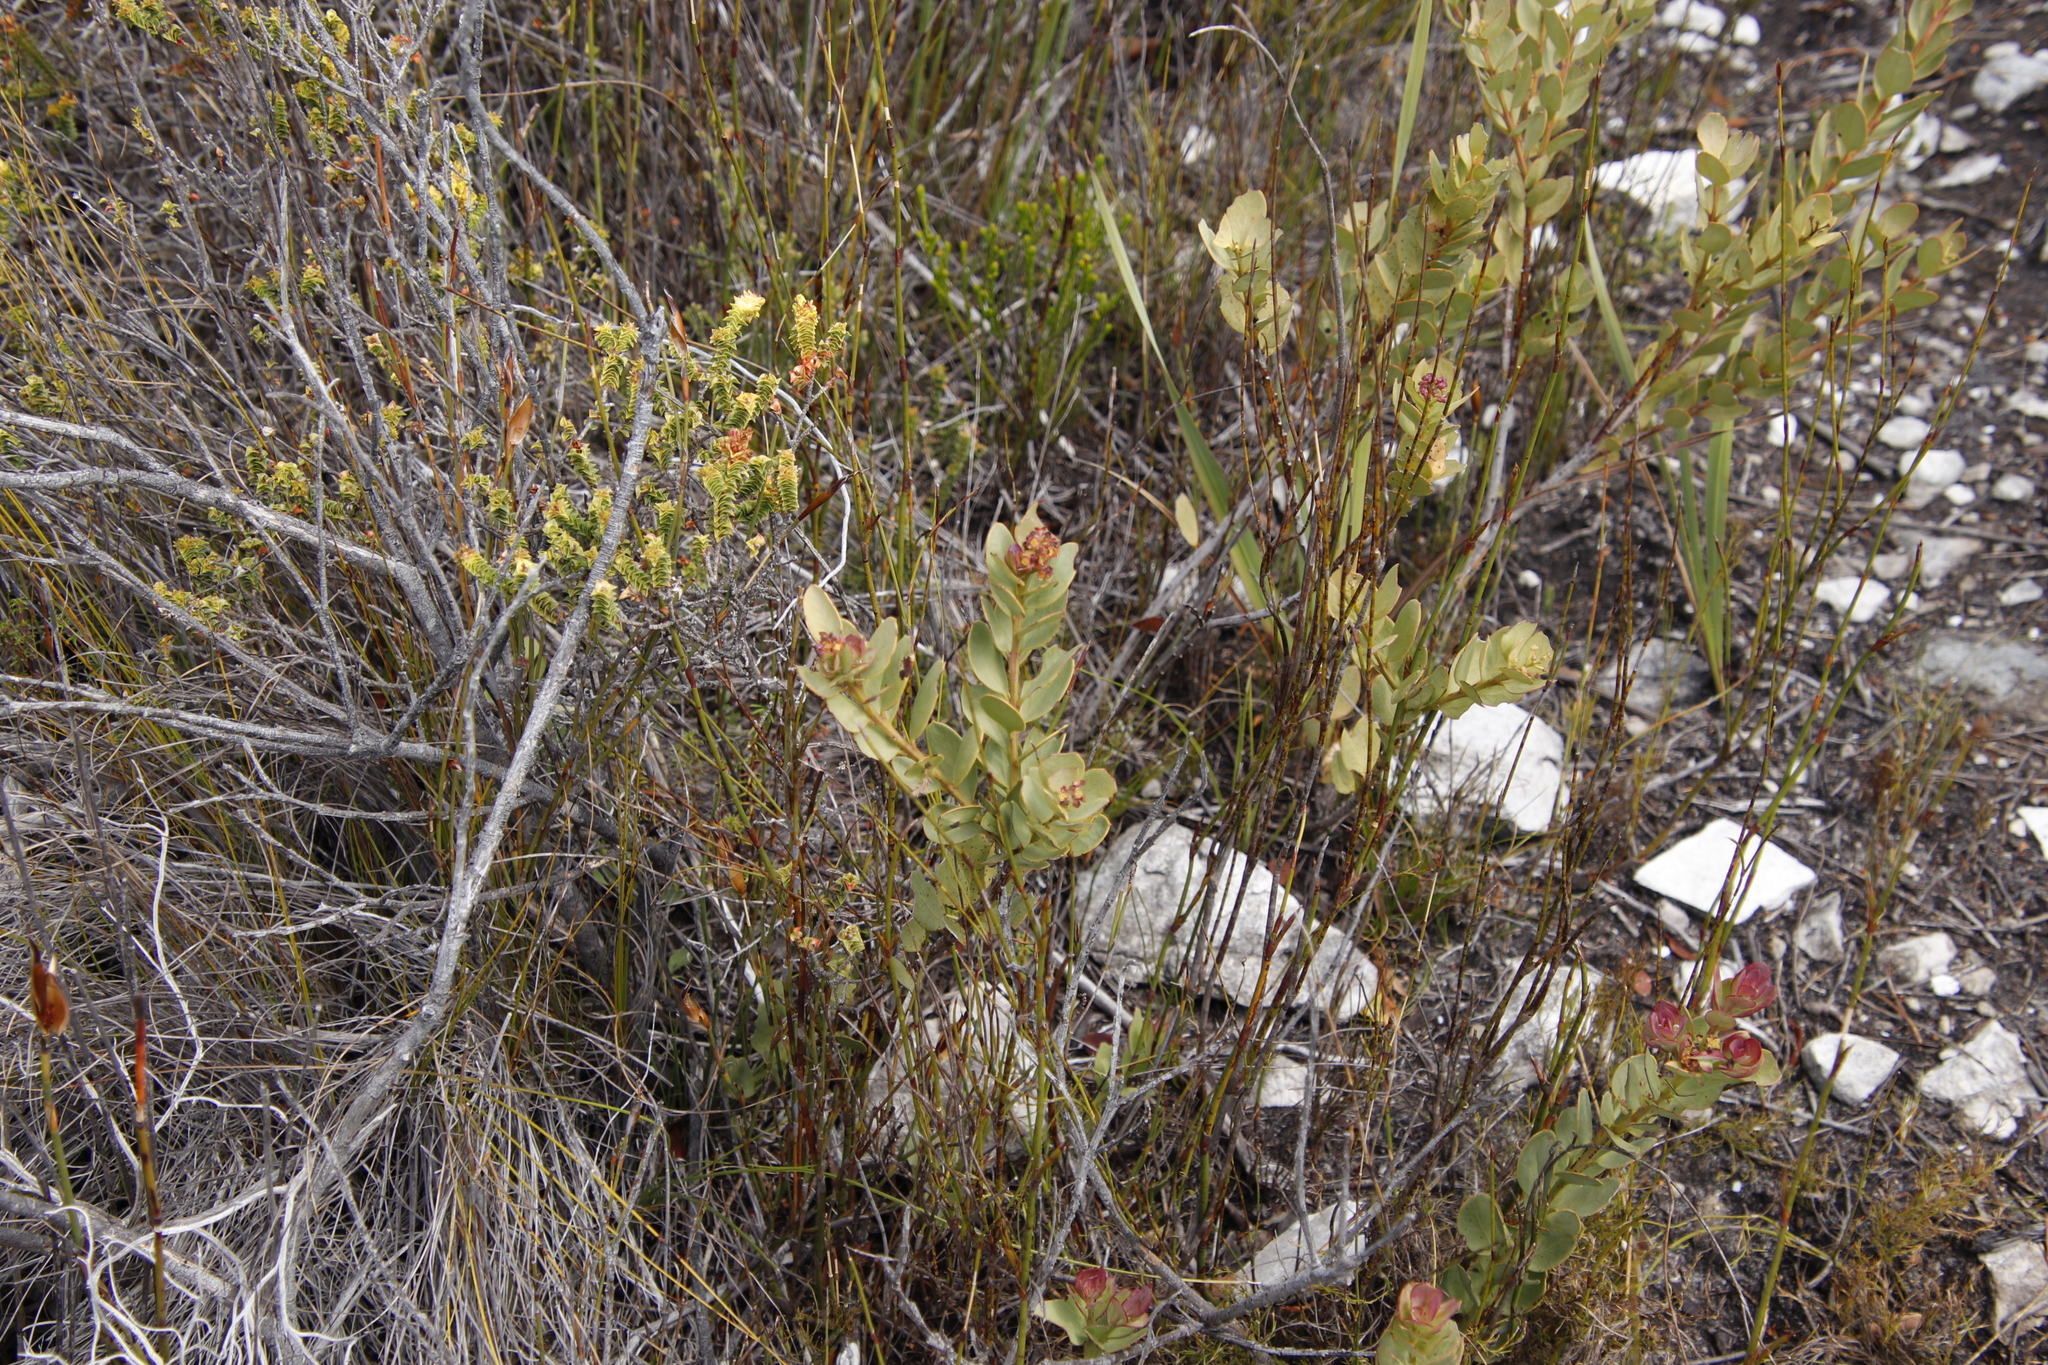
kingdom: Plantae
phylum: Tracheophyta
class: Magnoliopsida
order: Santalales
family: Santalaceae
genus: Osyris
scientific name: Osyris compressa
